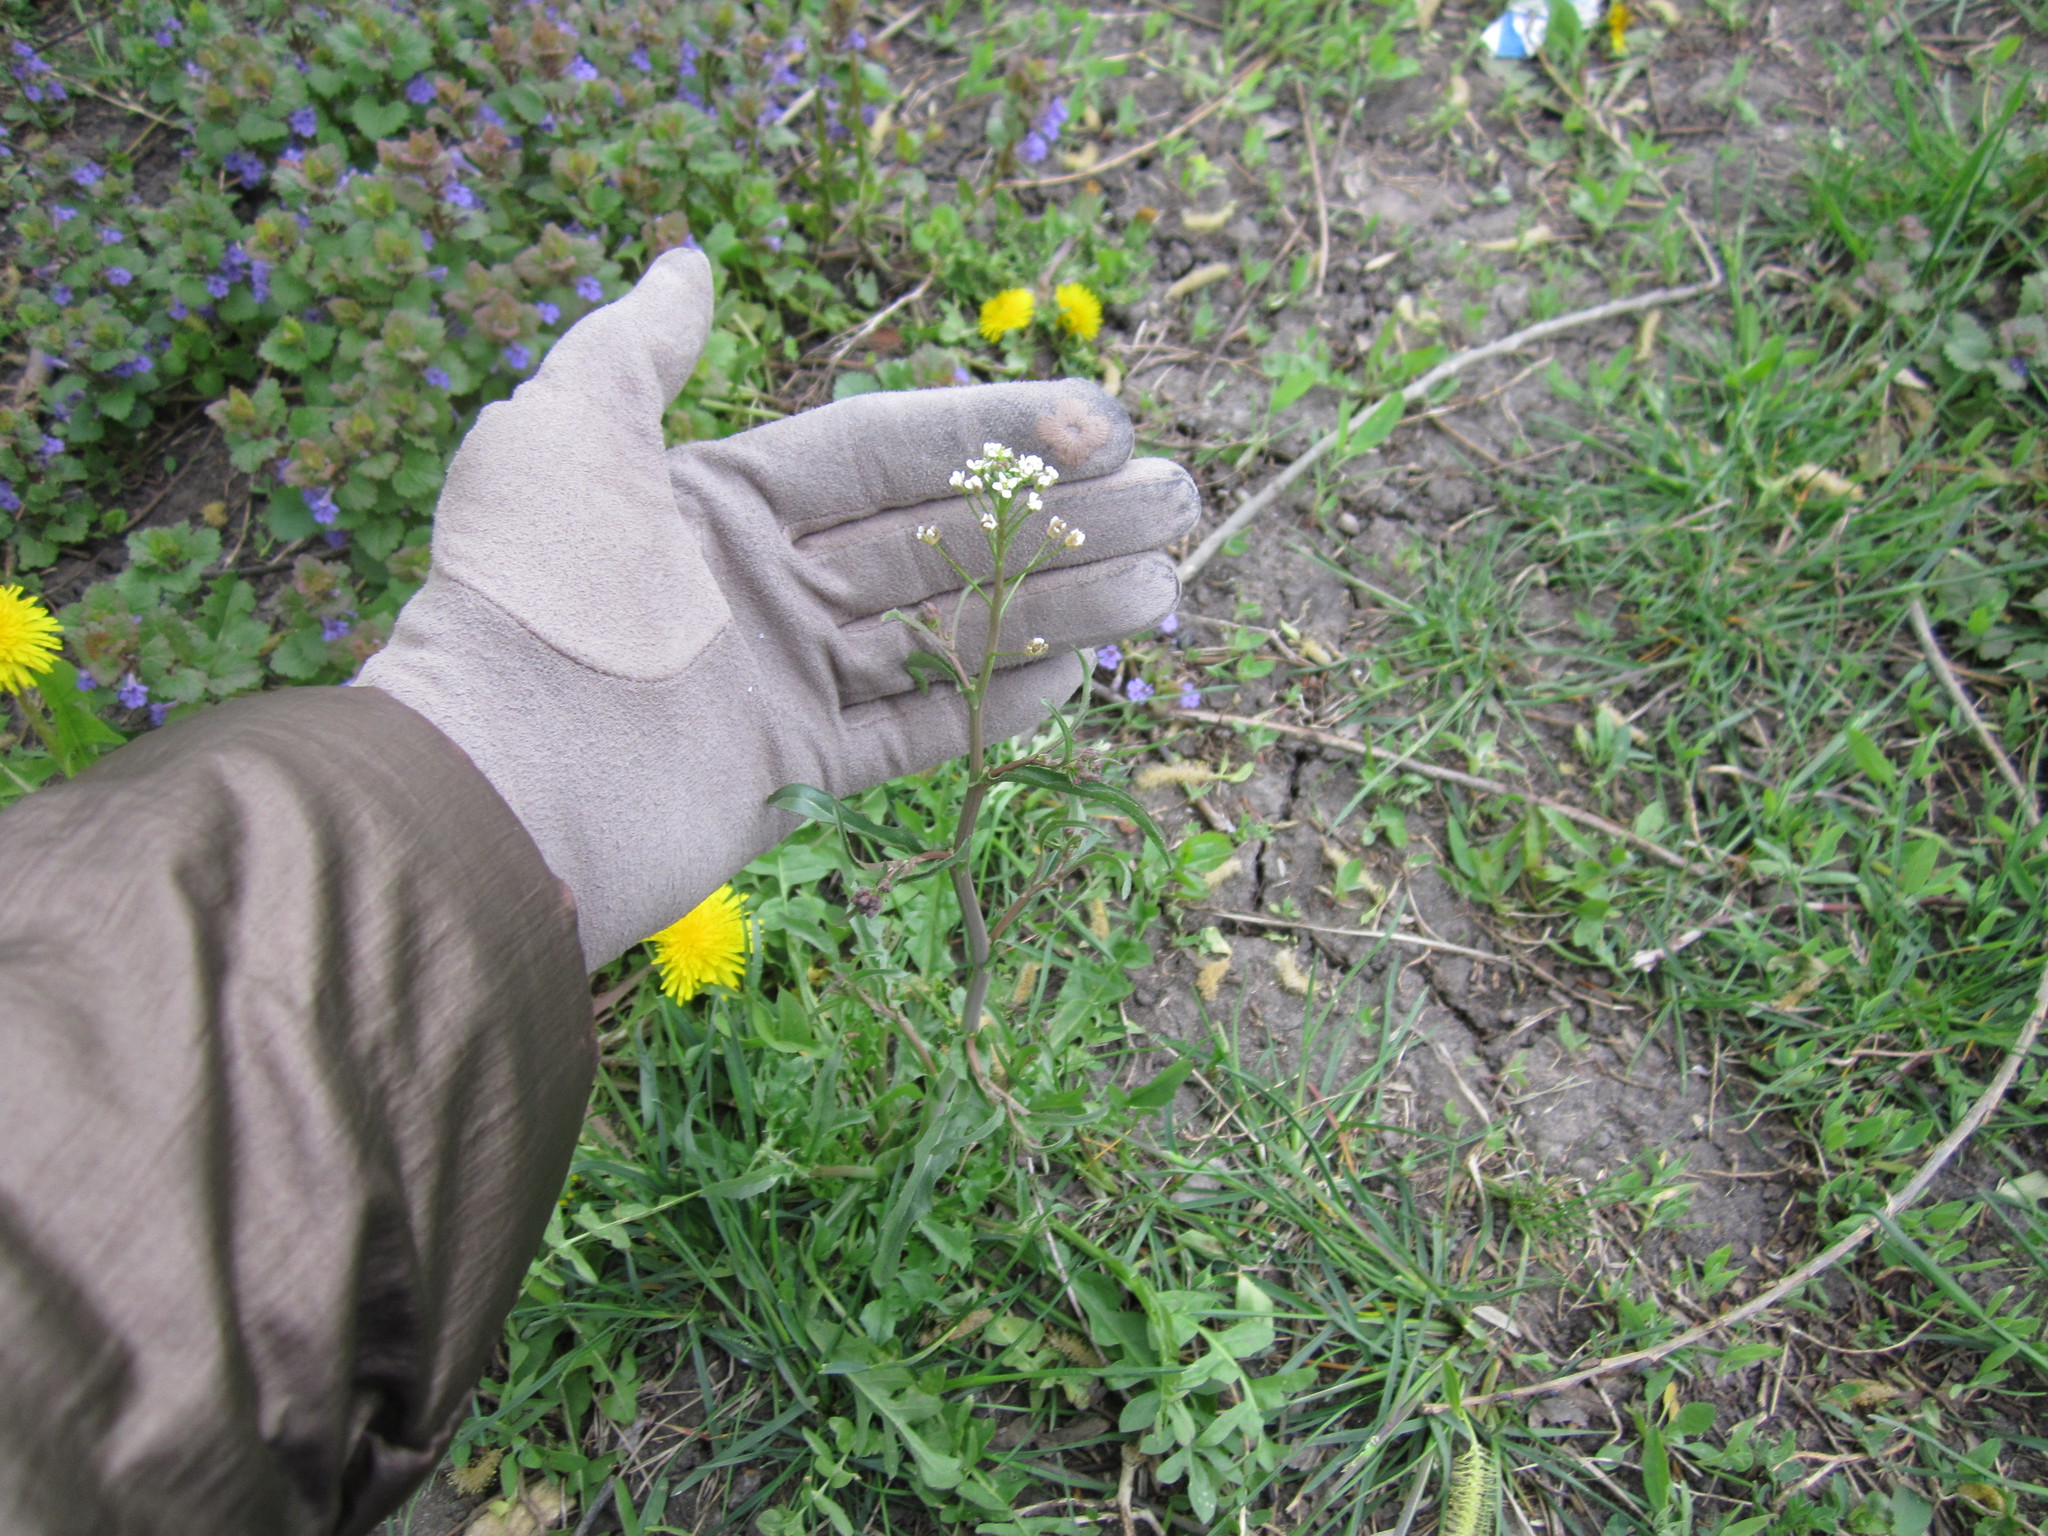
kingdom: Plantae
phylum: Tracheophyta
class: Magnoliopsida
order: Brassicales
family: Brassicaceae
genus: Capsella
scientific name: Capsella bursa-pastoris
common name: Shepherd's purse
